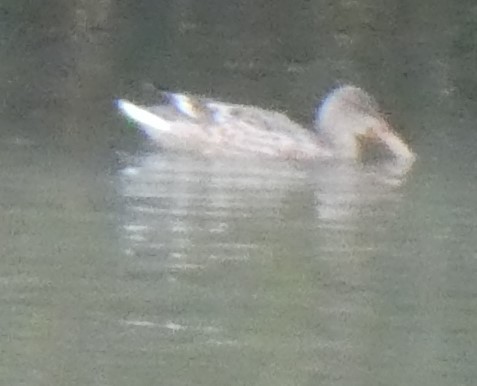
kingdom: Animalia
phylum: Chordata
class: Aves
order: Anseriformes
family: Anatidae
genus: Spatula
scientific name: Spatula clypeata
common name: Northern shoveler
